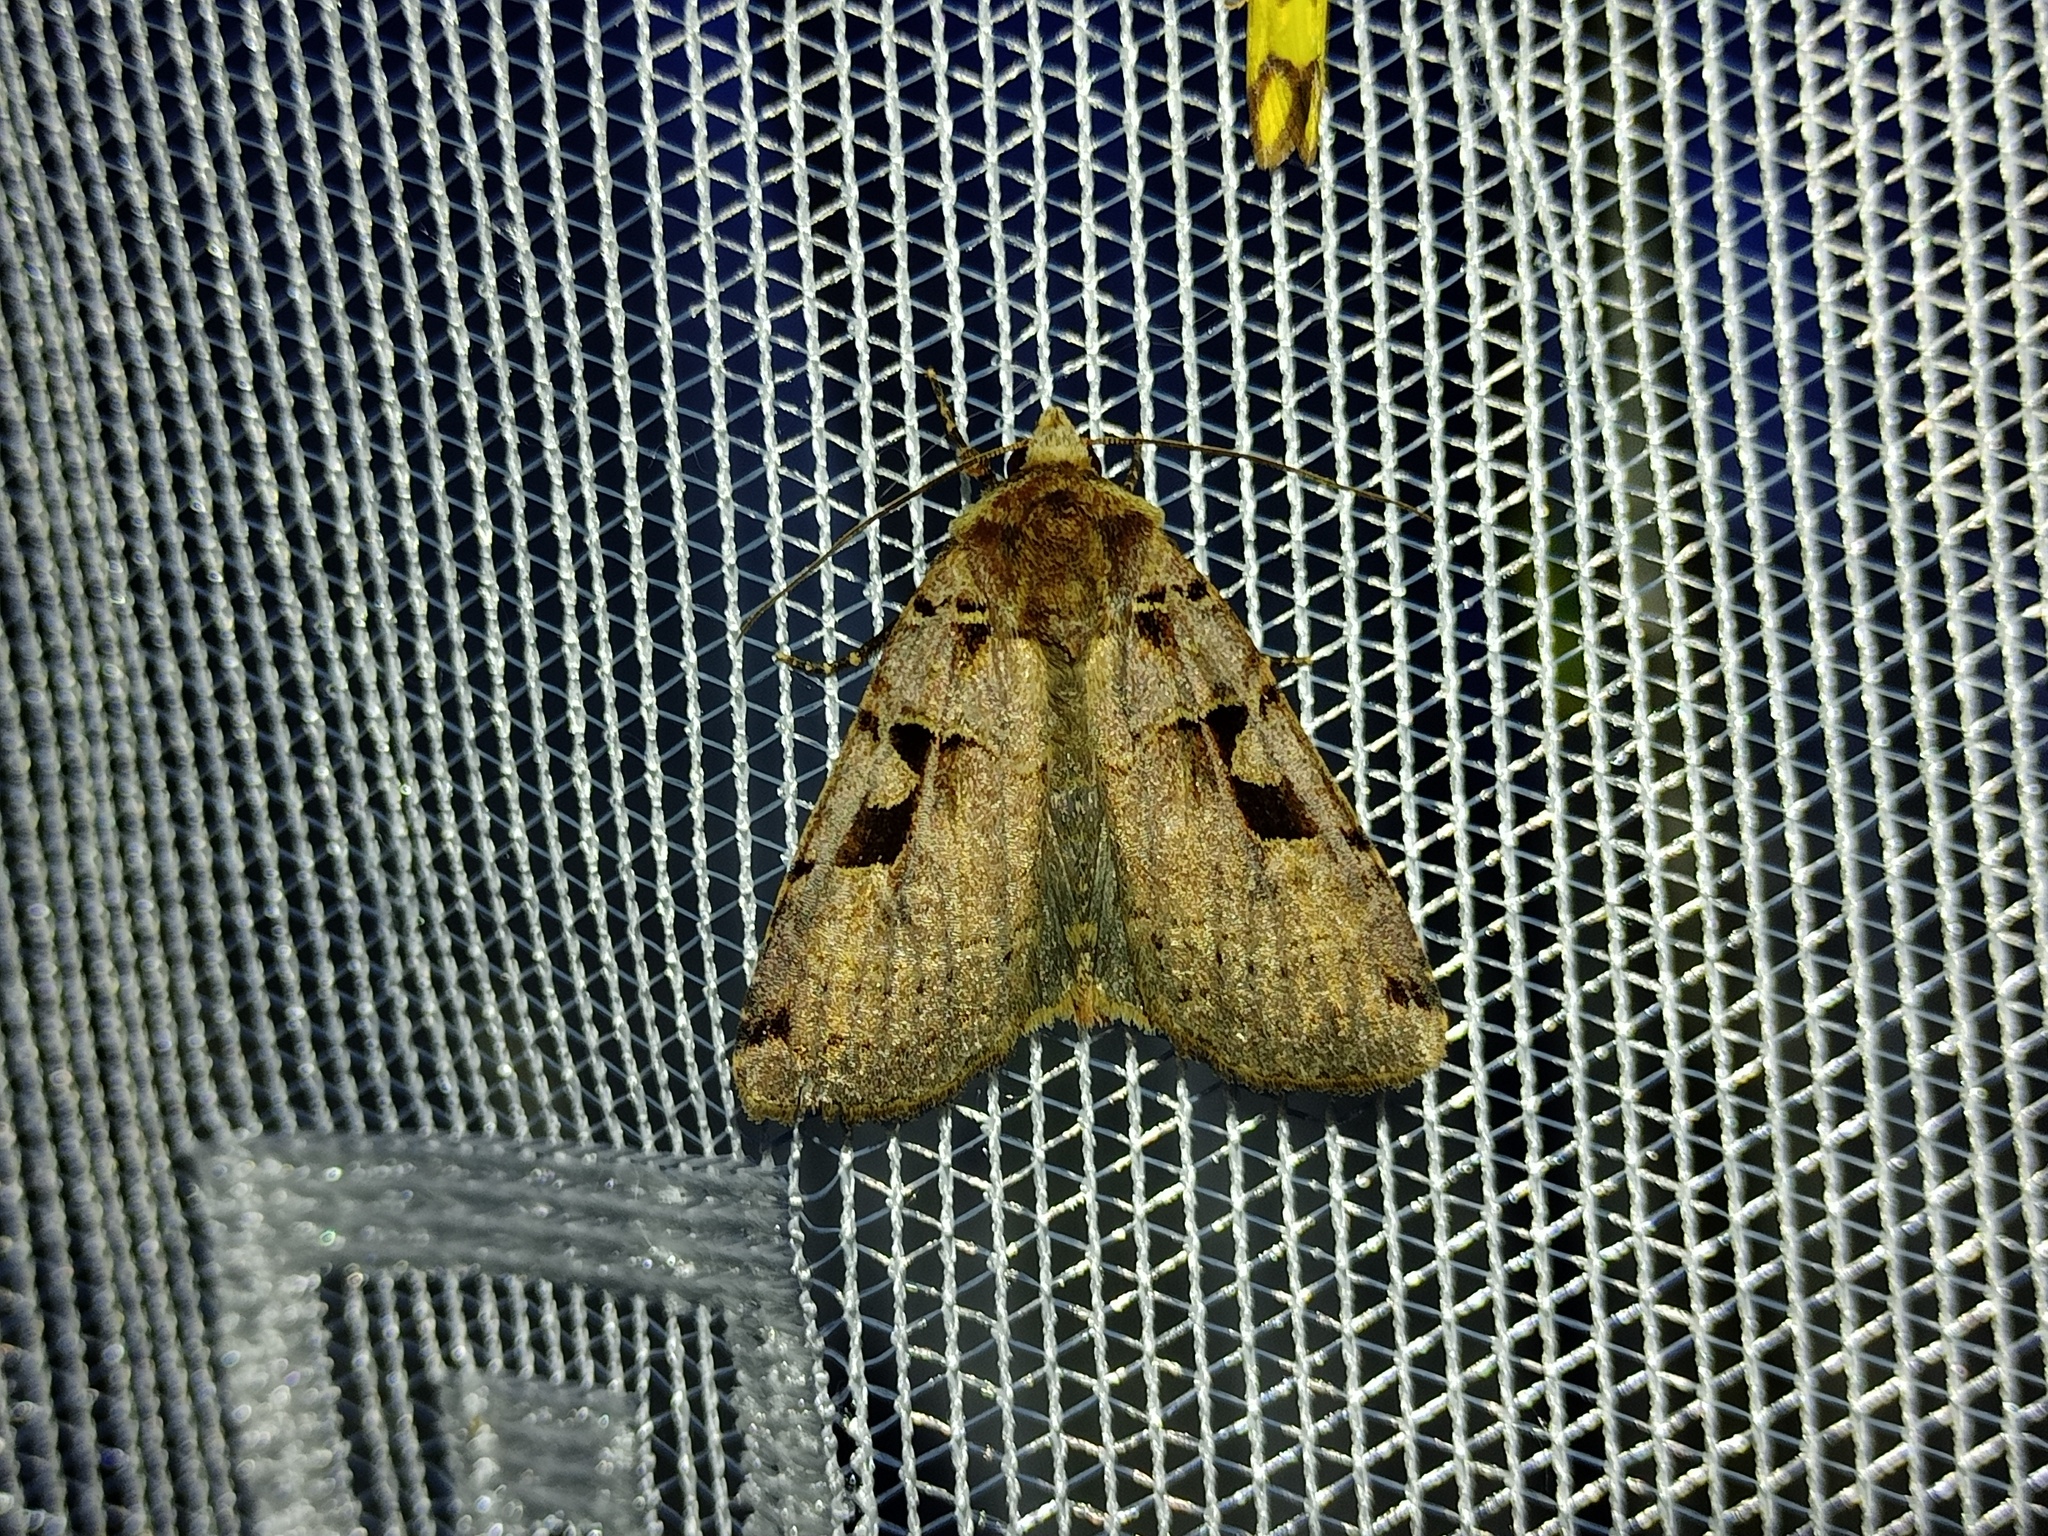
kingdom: Animalia
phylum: Arthropoda
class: Insecta
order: Lepidoptera
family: Noctuidae
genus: Xestia
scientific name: Xestia triangulum
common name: Double square-spot
